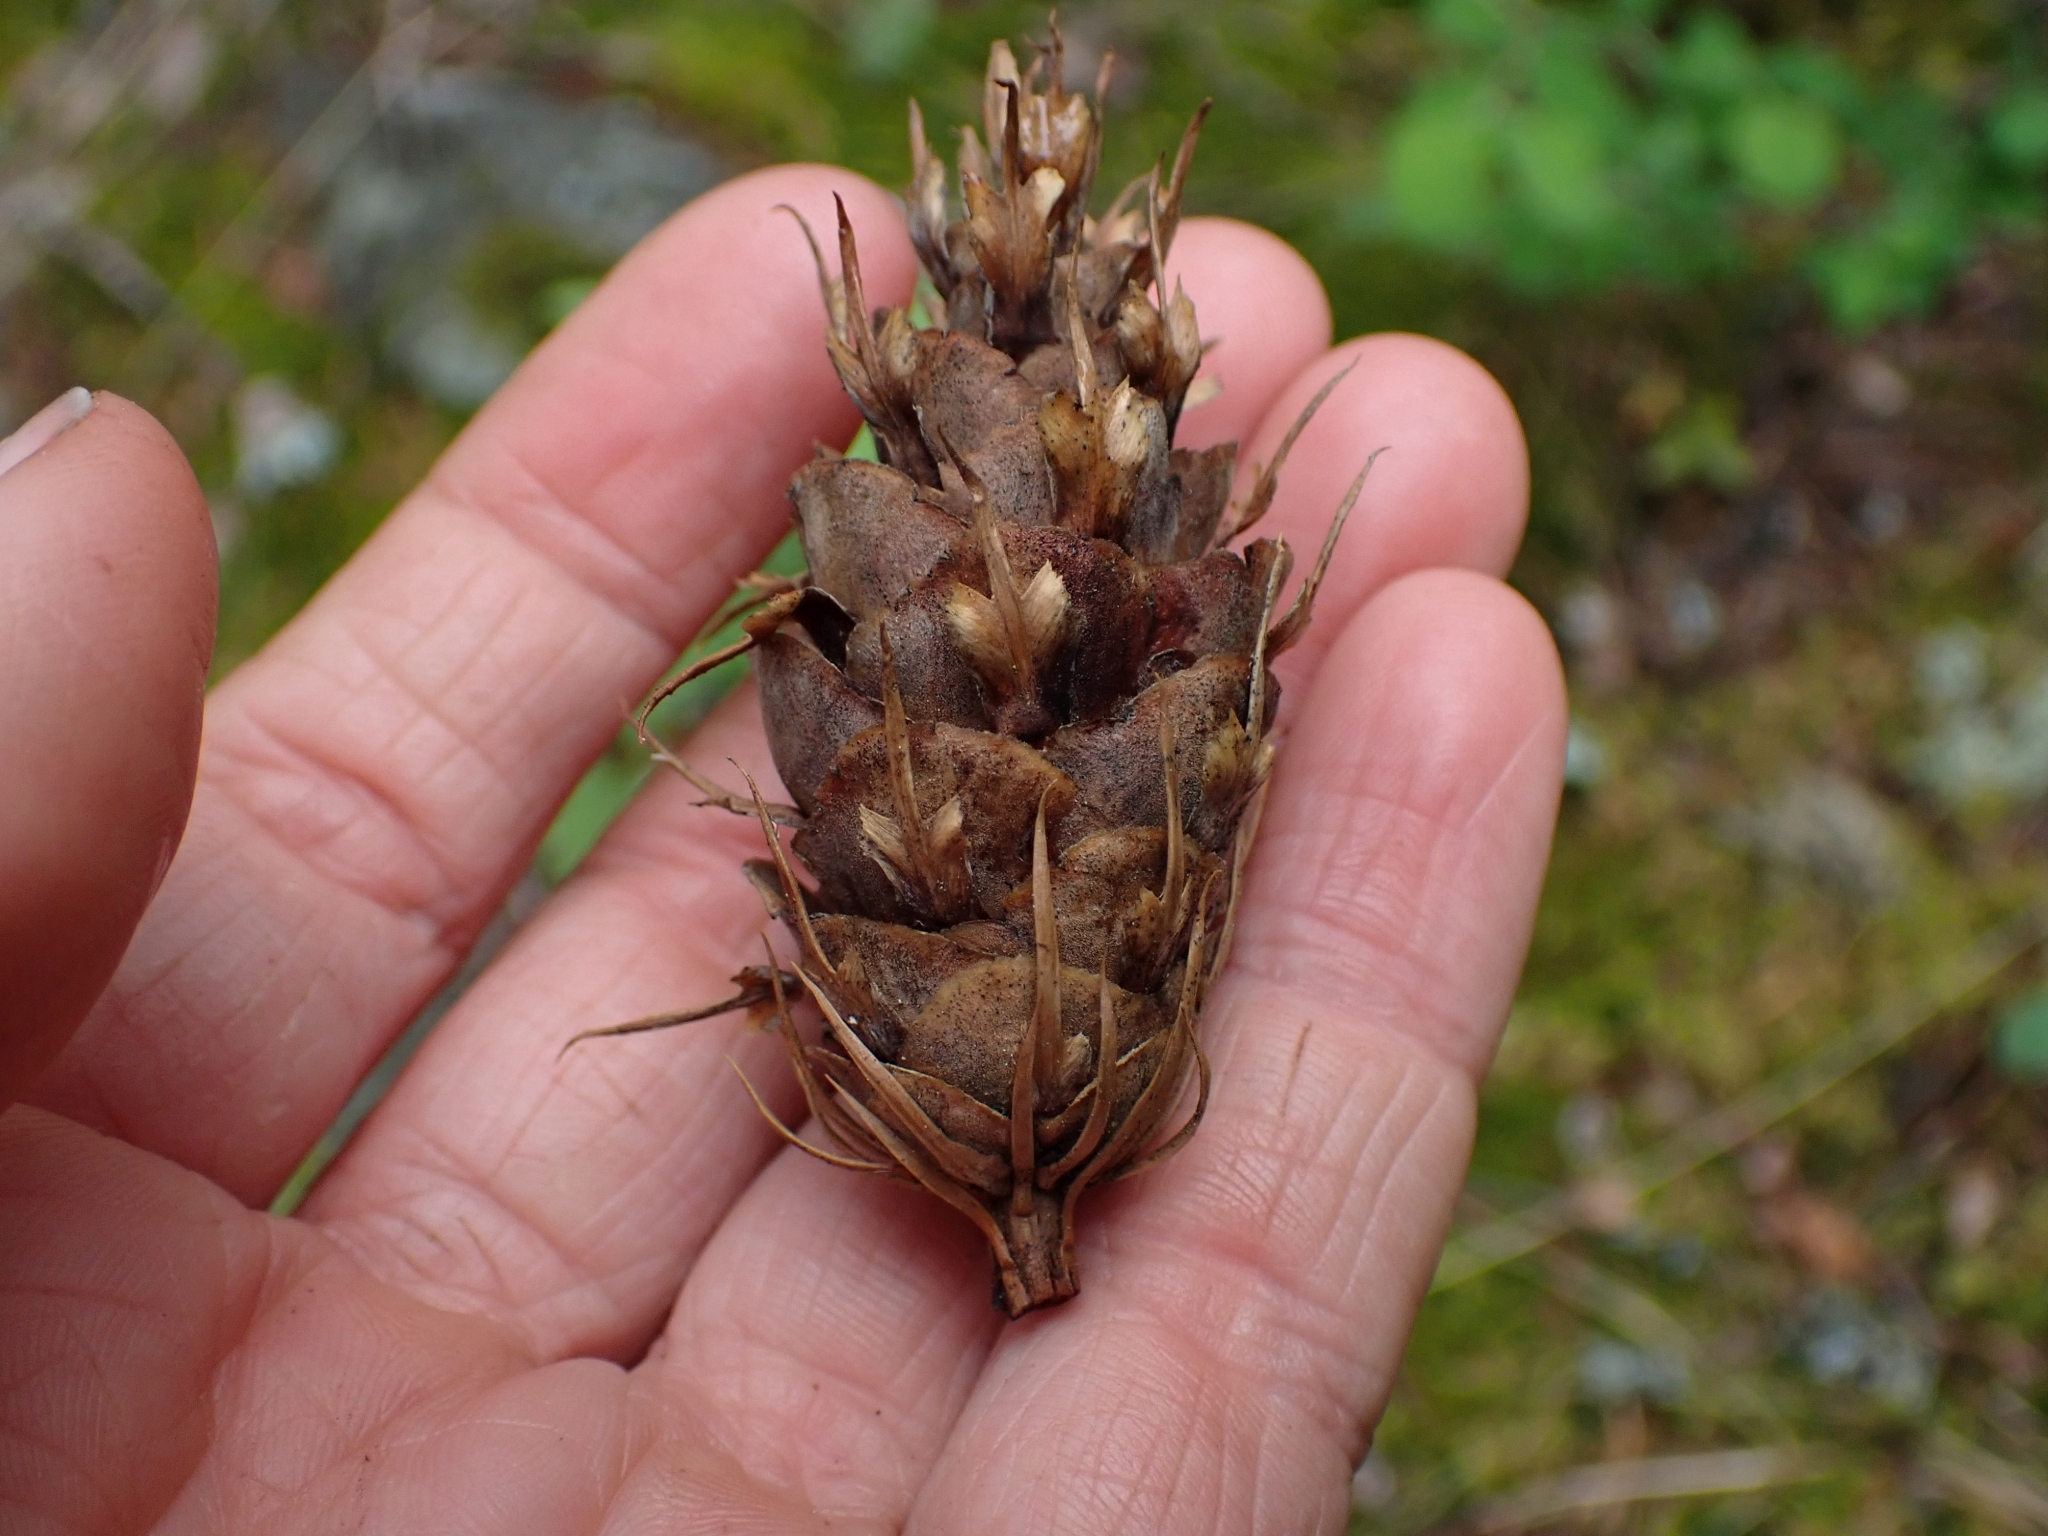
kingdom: Plantae
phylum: Tracheophyta
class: Pinopsida
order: Pinales
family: Pinaceae
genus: Pseudotsuga
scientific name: Pseudotsuga menziesii
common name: Douglas fir
